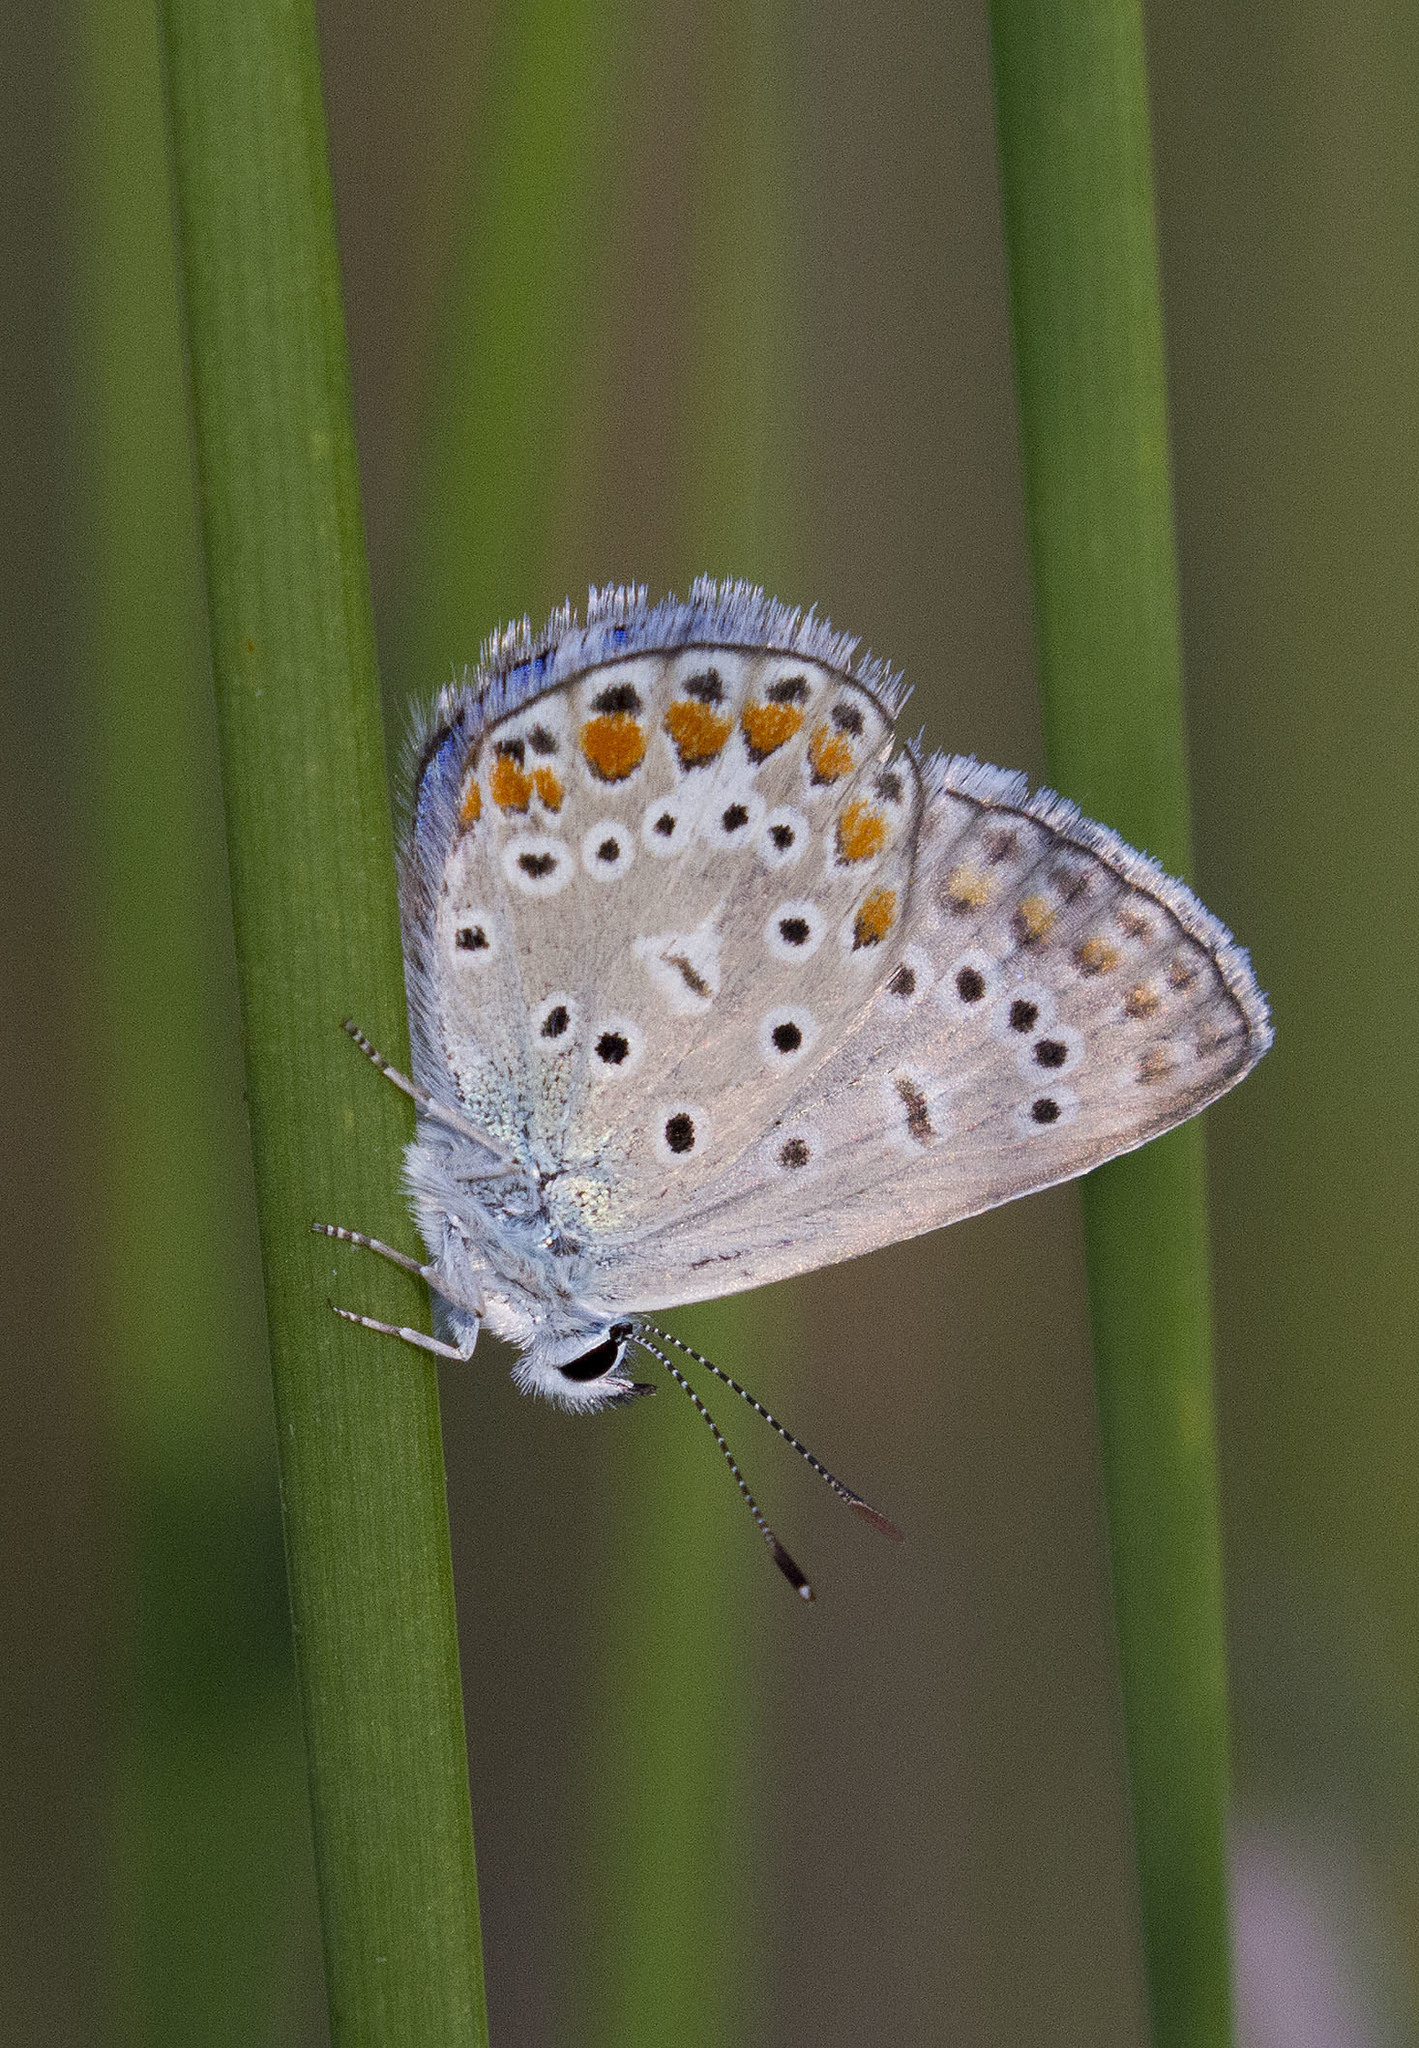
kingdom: Animalia
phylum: Arthropoda
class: Insecta
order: Lepidoptera
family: Lycaenidae
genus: Polyommatus
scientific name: Polyommatus icarus
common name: Common blue
